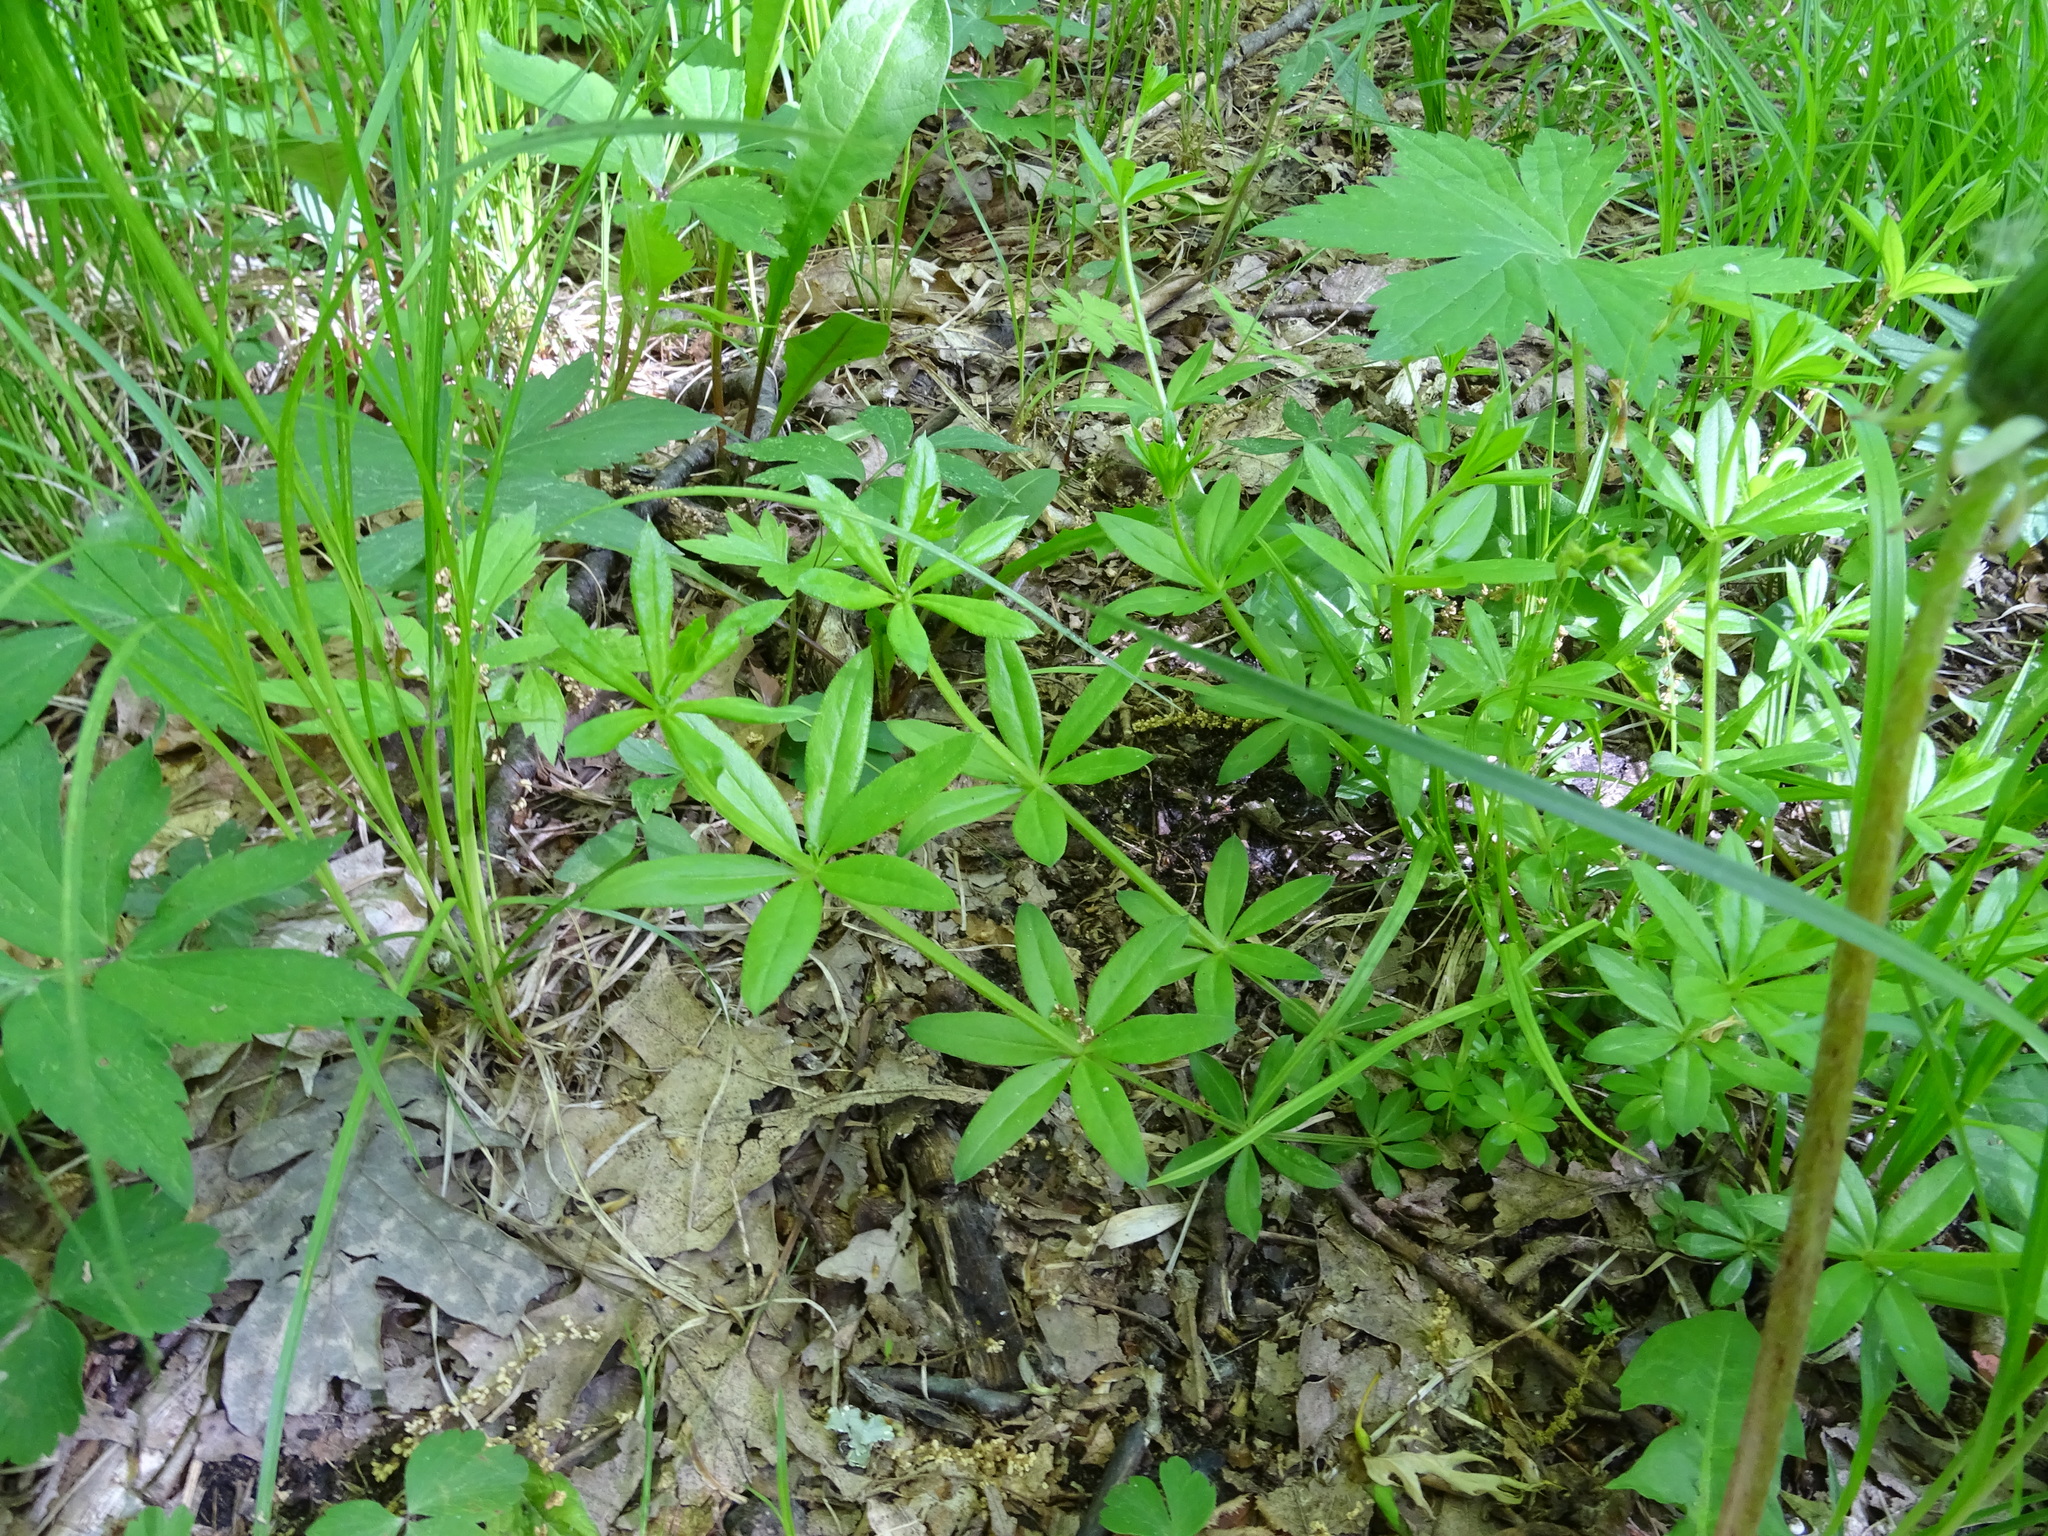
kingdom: Plantae
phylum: Tracheophyta
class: Magnoliopsida
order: Gentianales
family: Rubiaceae
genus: Galium
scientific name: Galium triflorum
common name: Fragrant bedstraw
